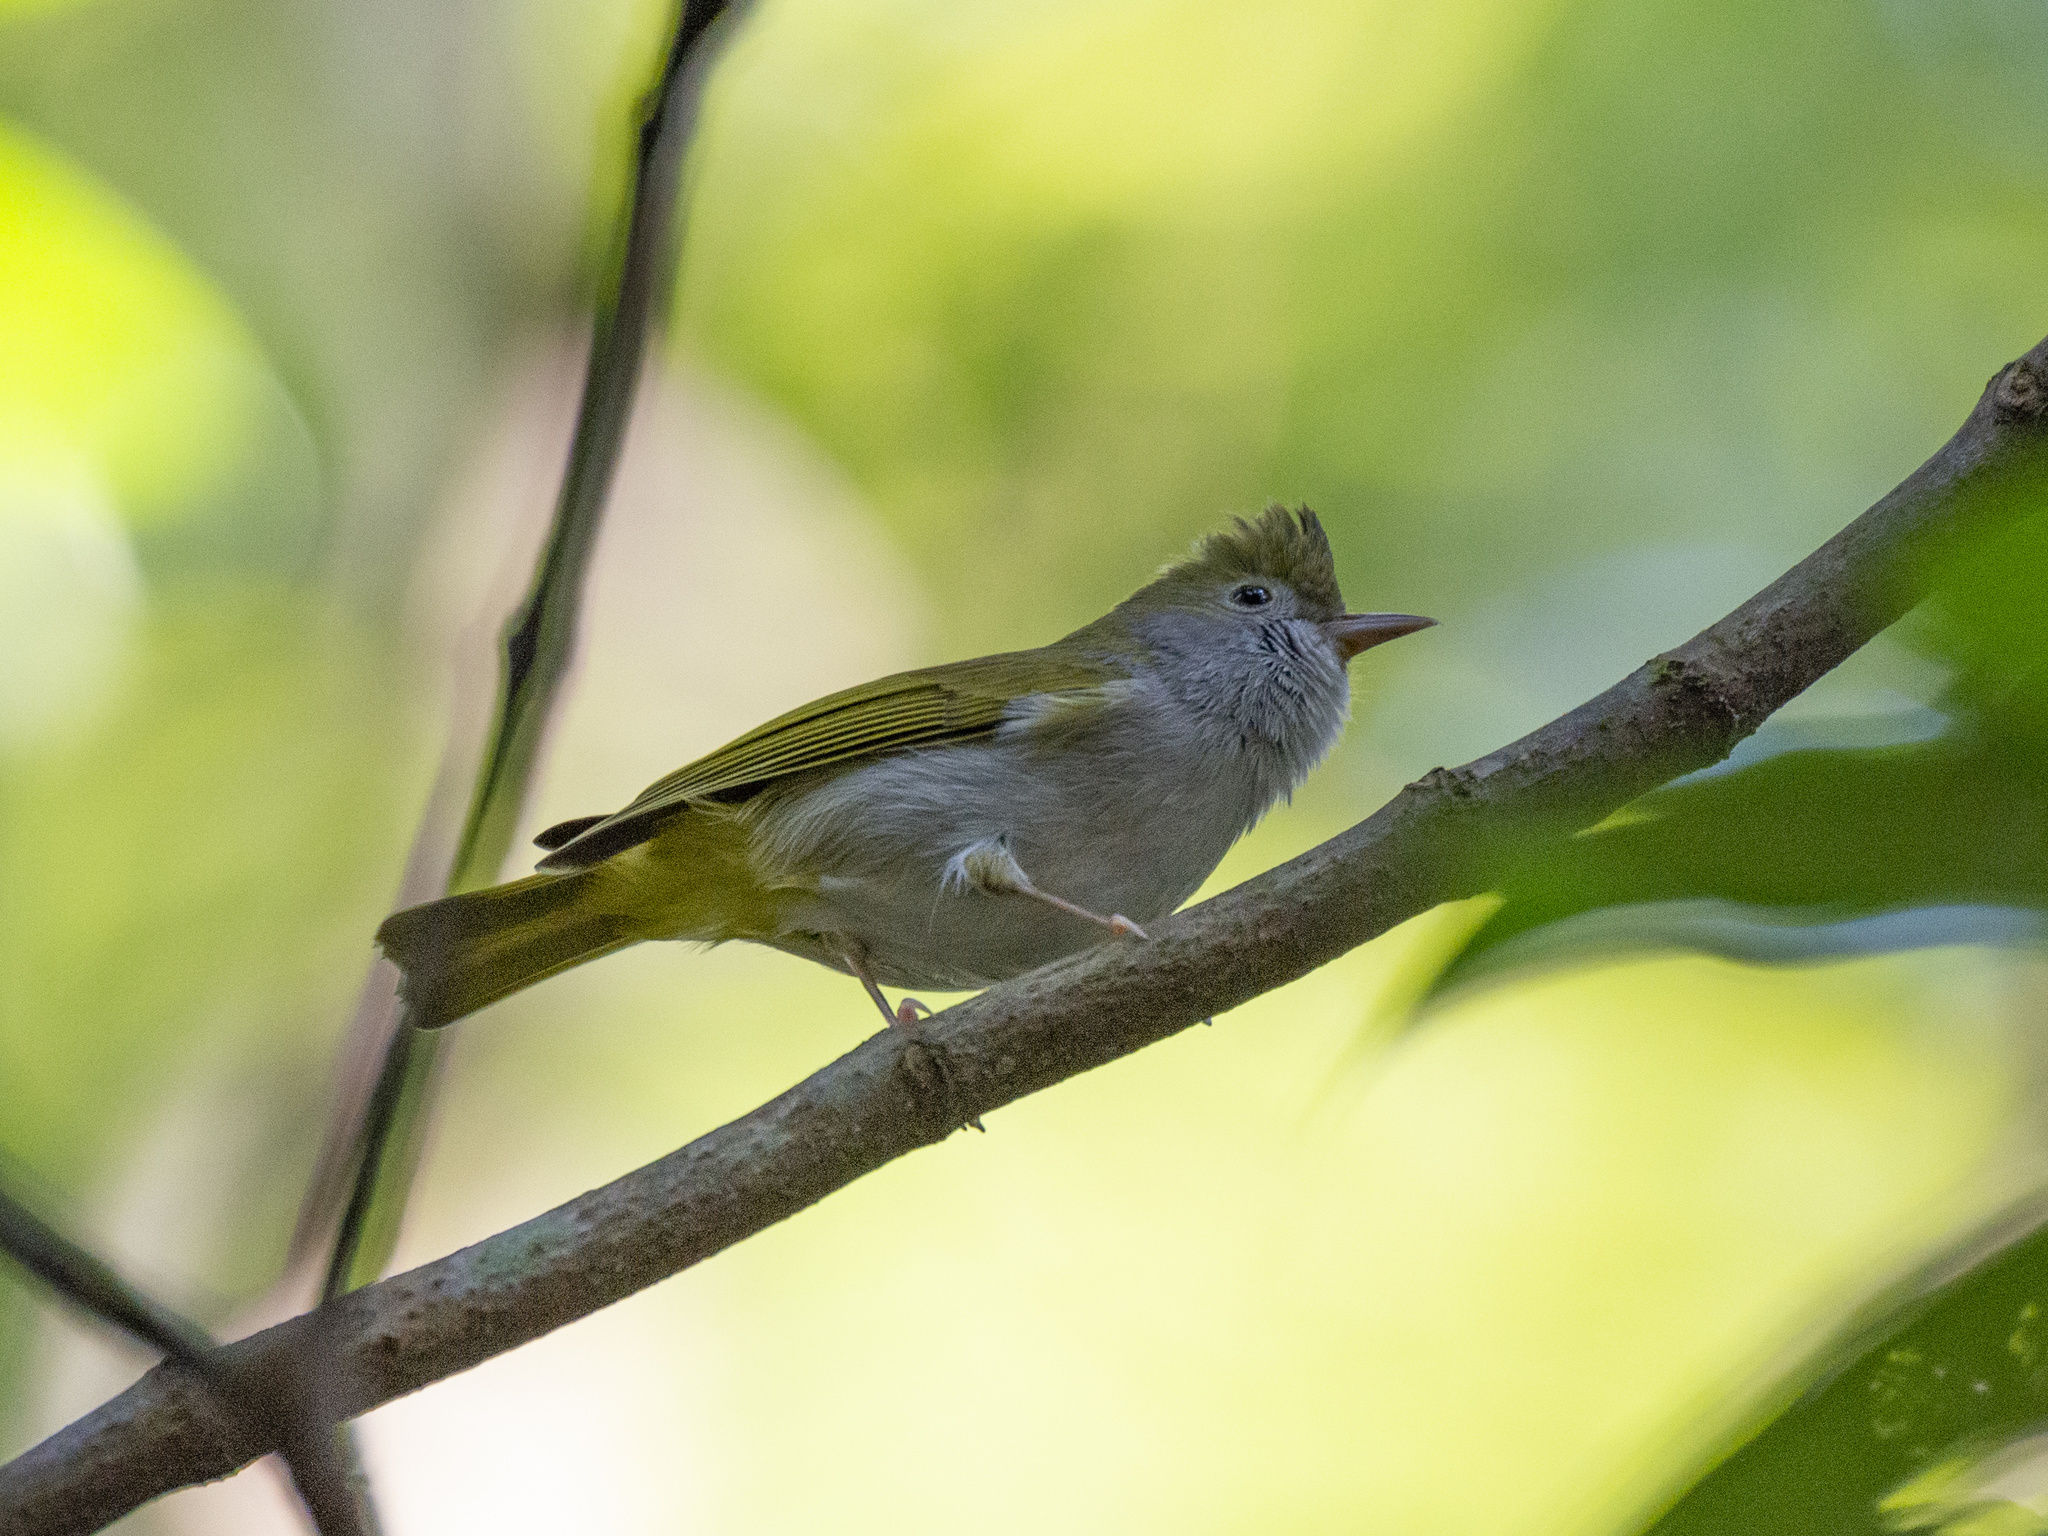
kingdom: Animalia
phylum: Chordata
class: Aves
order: Passeriformes
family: Vireonidae
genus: Erpornis
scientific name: Erpornis zantholeuca
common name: White-bellied erpornis
